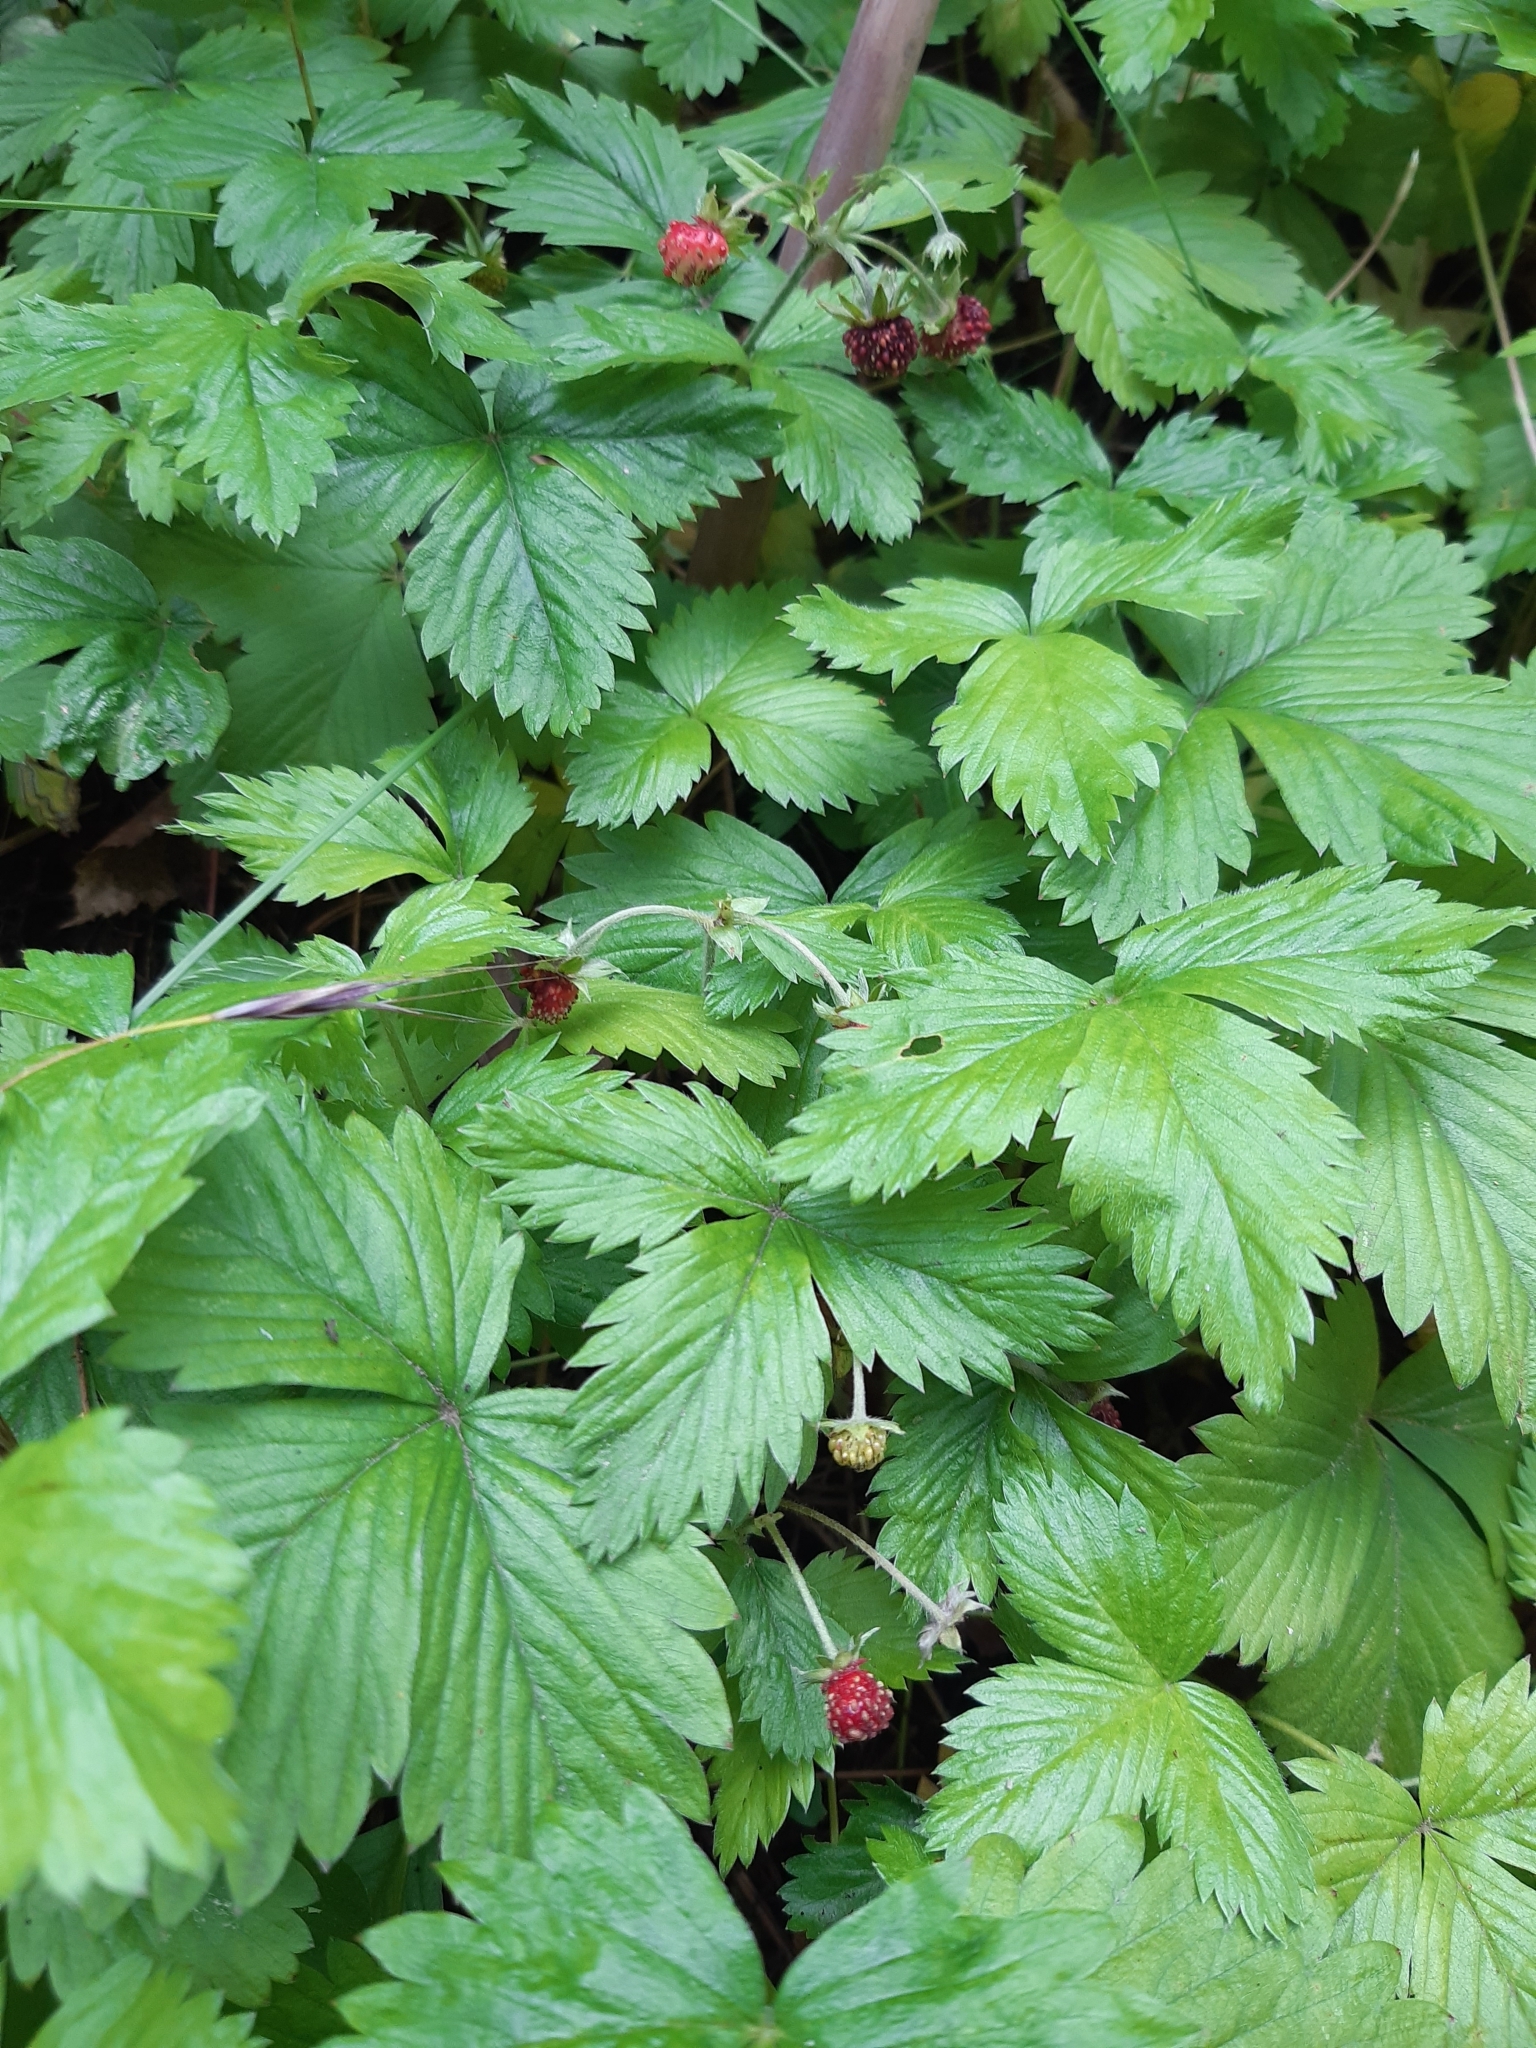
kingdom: Plantae
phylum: Tracheophyta
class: Magnoliopsida
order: Rosales
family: Rosaceae
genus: Fragaria
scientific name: Fragaria vesca
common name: Wild strawberry
